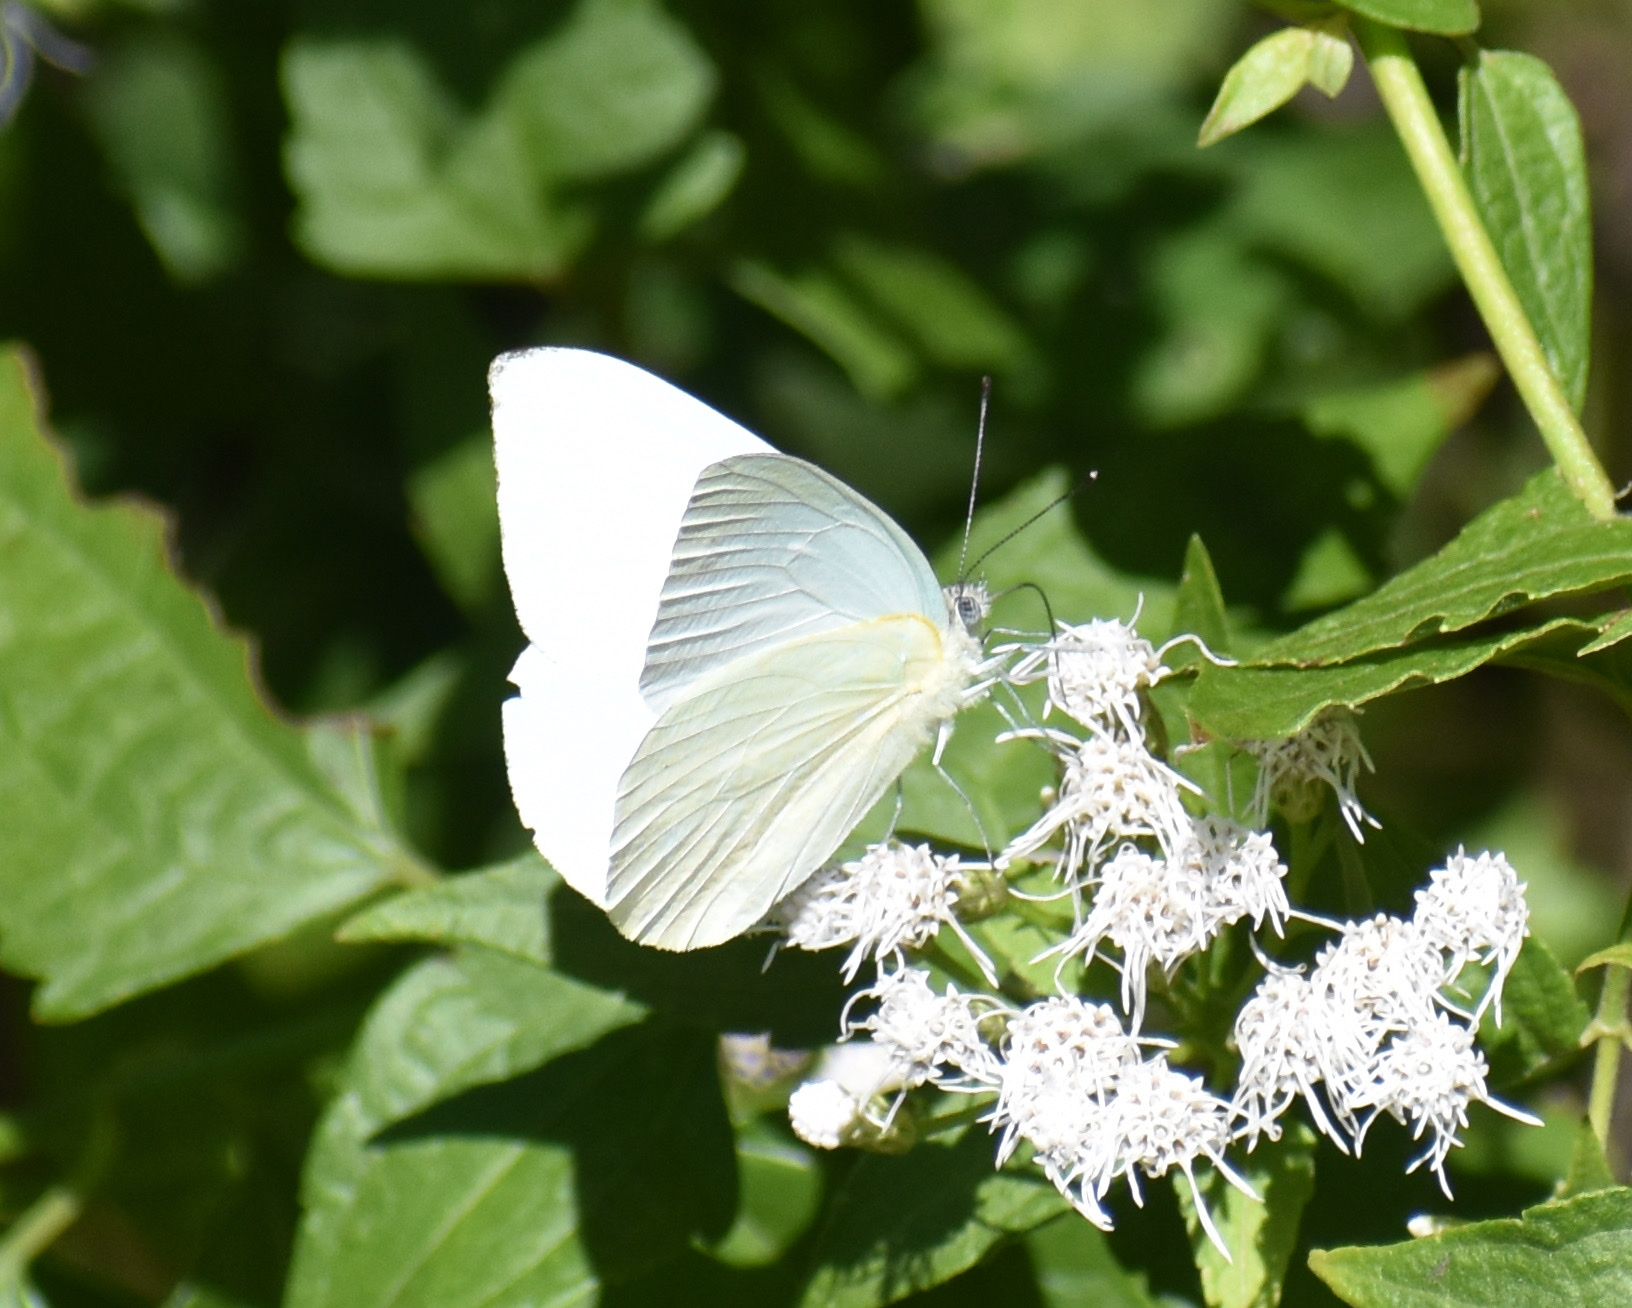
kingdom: Animalia
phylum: Arthropoda
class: Insecta
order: Lepidoptera
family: Pieridae
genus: Dixeia
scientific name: Dixeia pigea
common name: Ant-heap small white
